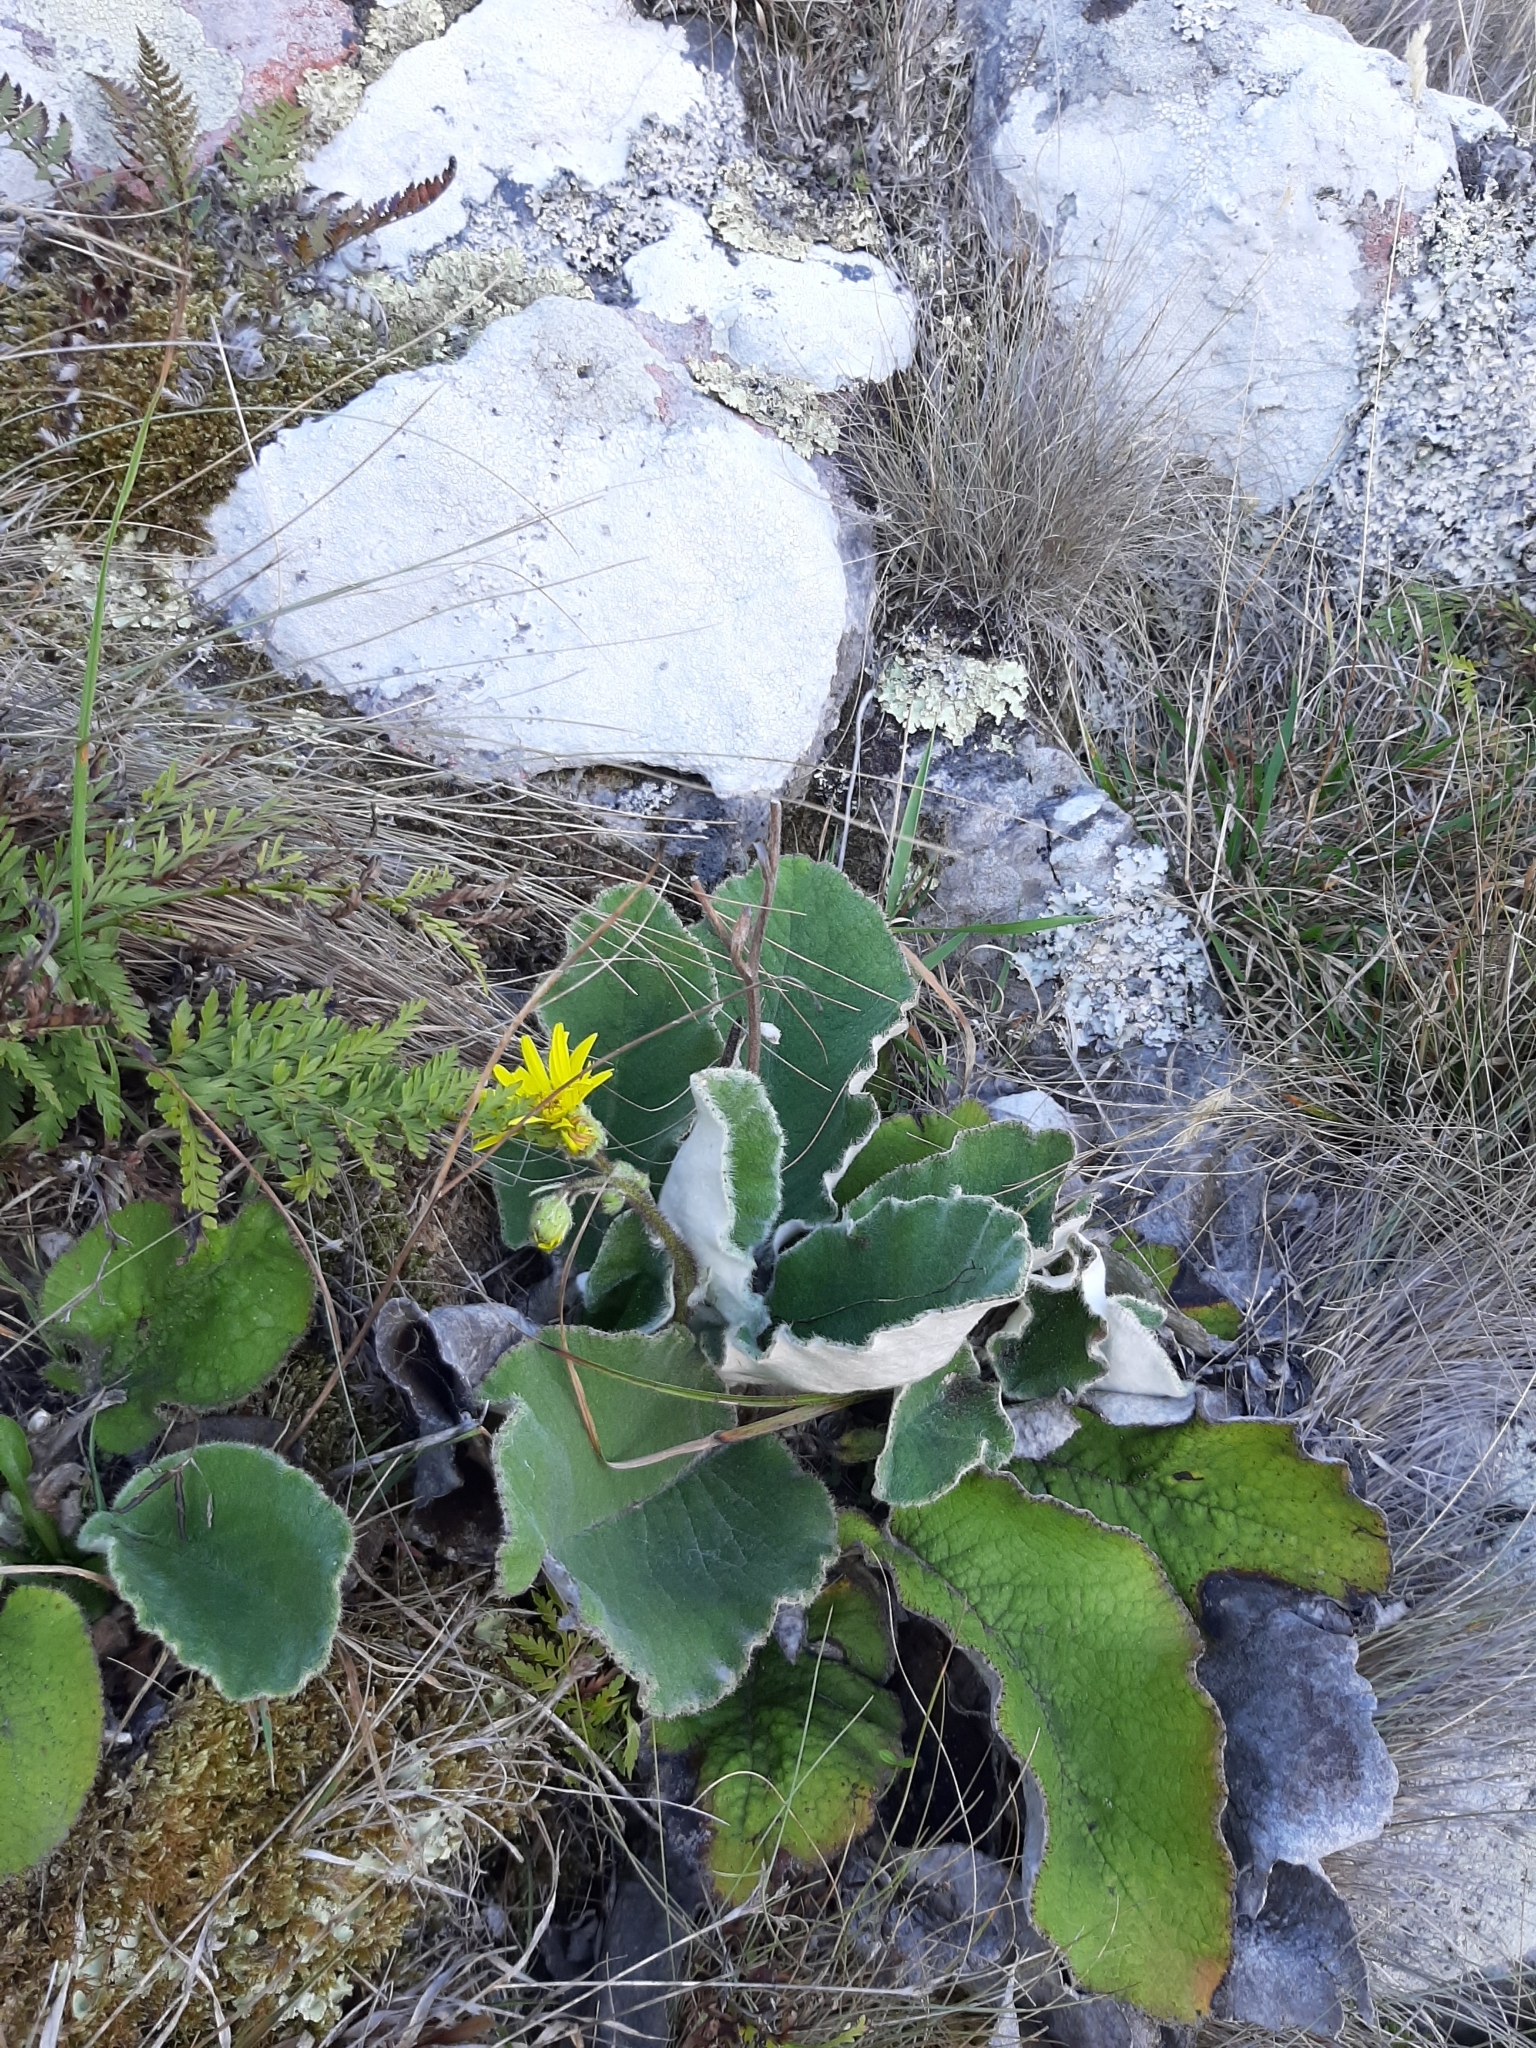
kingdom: Plantae
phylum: Tracheophyta
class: Magnoliopsida
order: Asterales
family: Asteraceae
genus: Brachyglottis
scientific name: Brachyglottis lagopus
